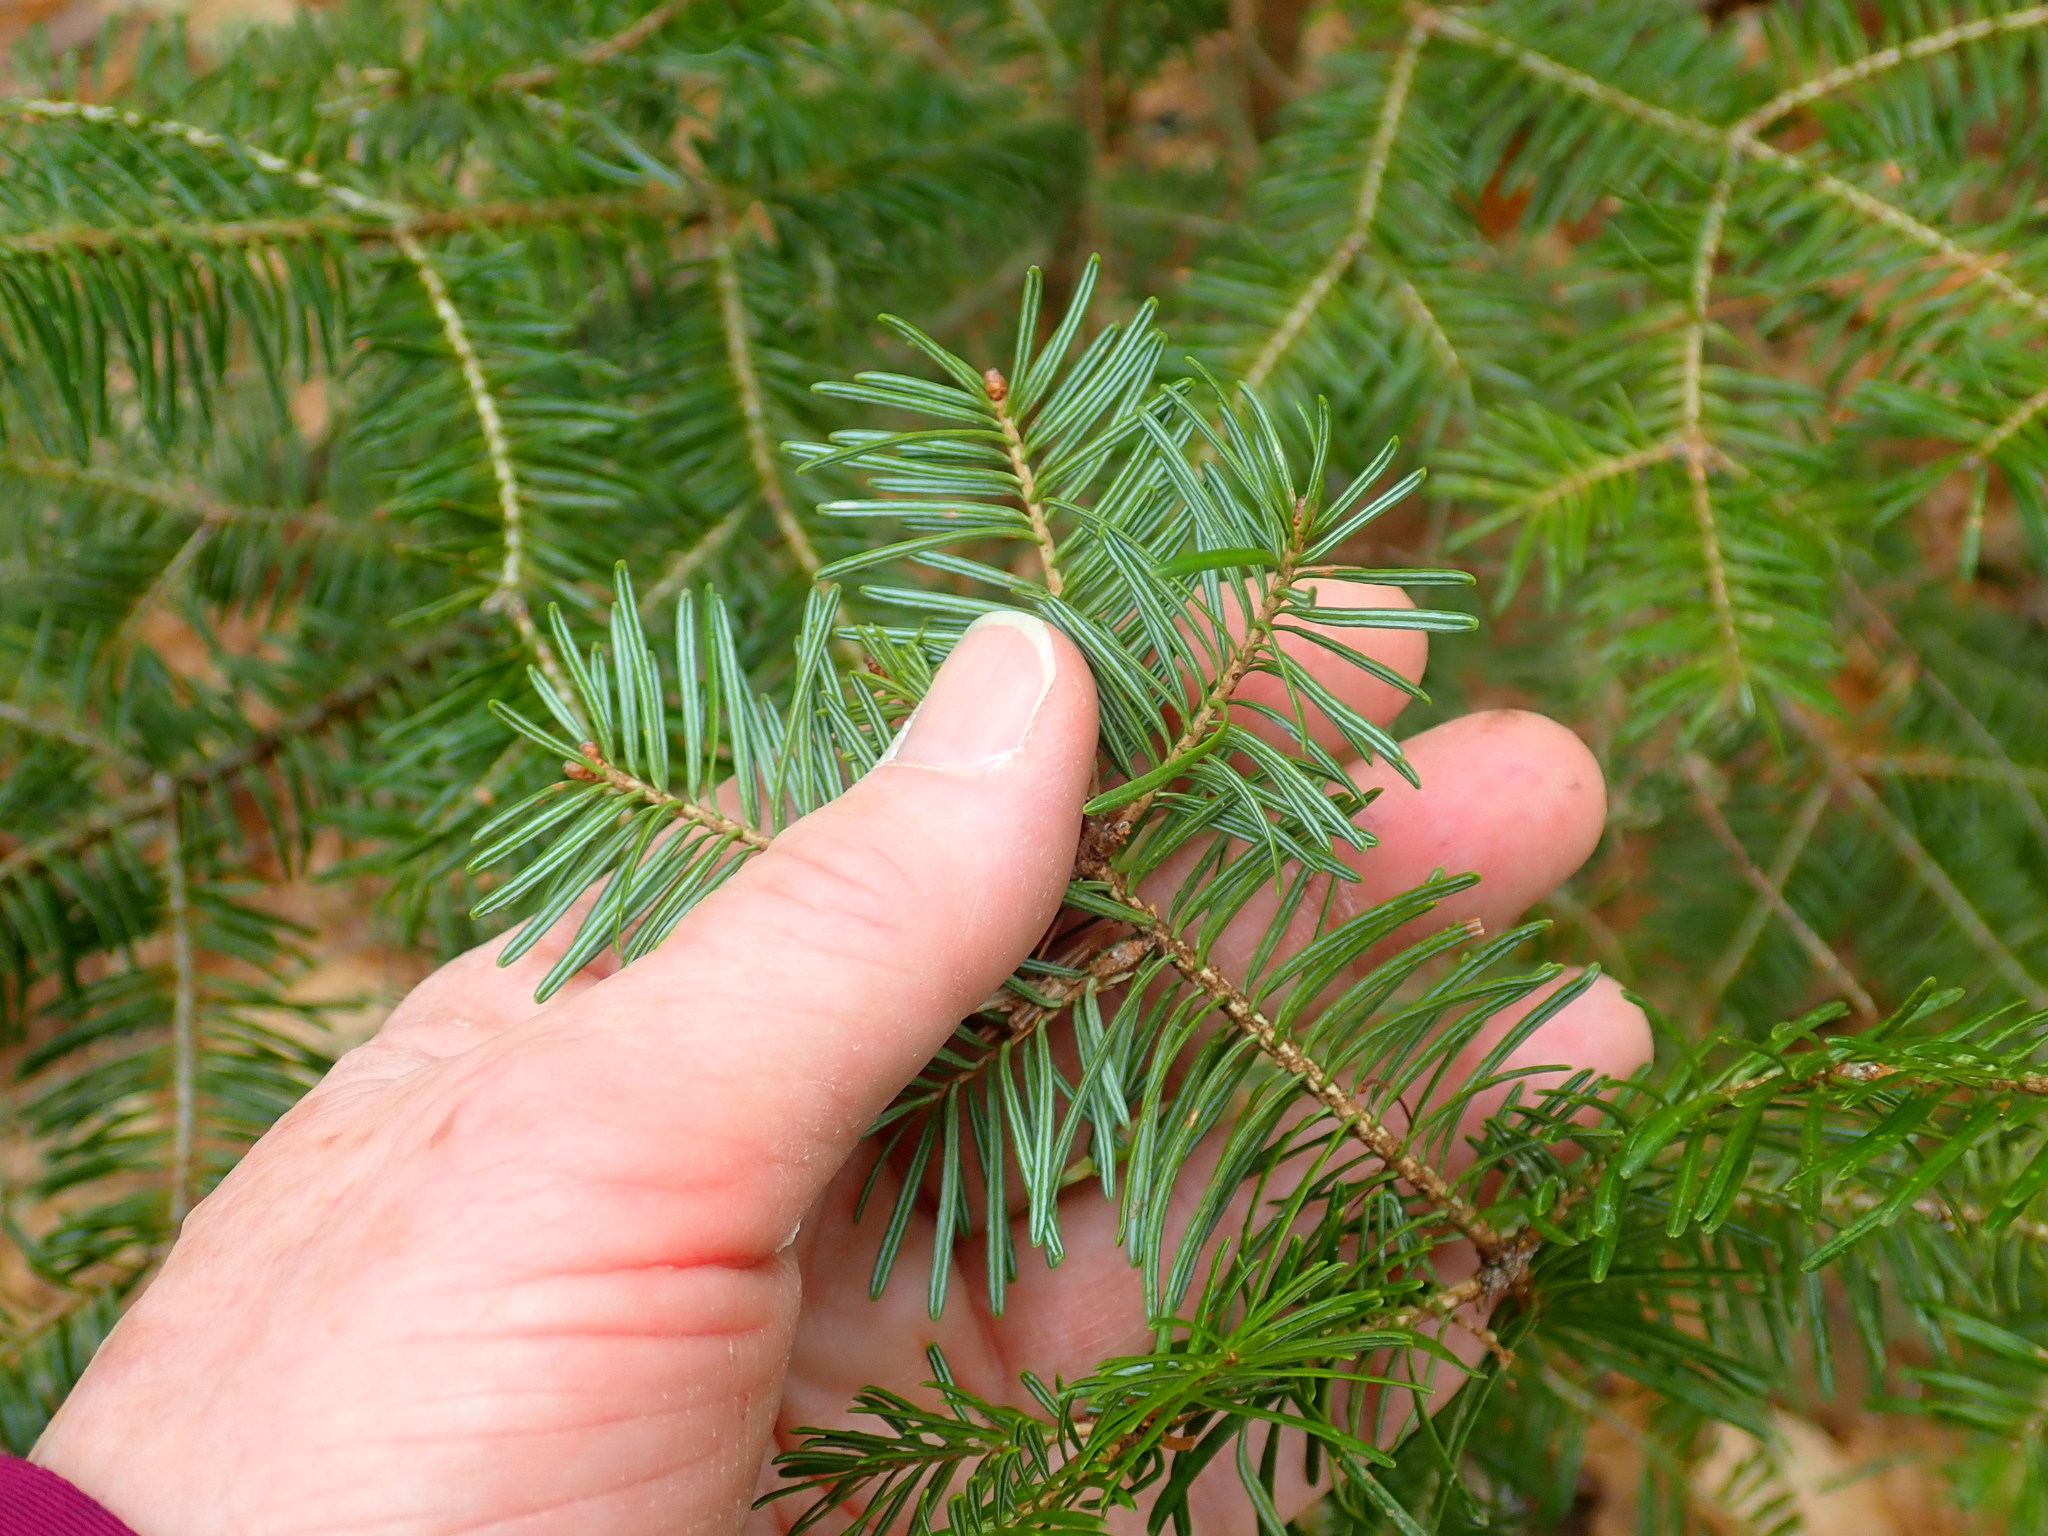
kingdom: Plantae
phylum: Tracheophyta
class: Pinopsida
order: Pinales
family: Pinaceae
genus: Abies
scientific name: Abies balsamea
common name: Balsam fir
